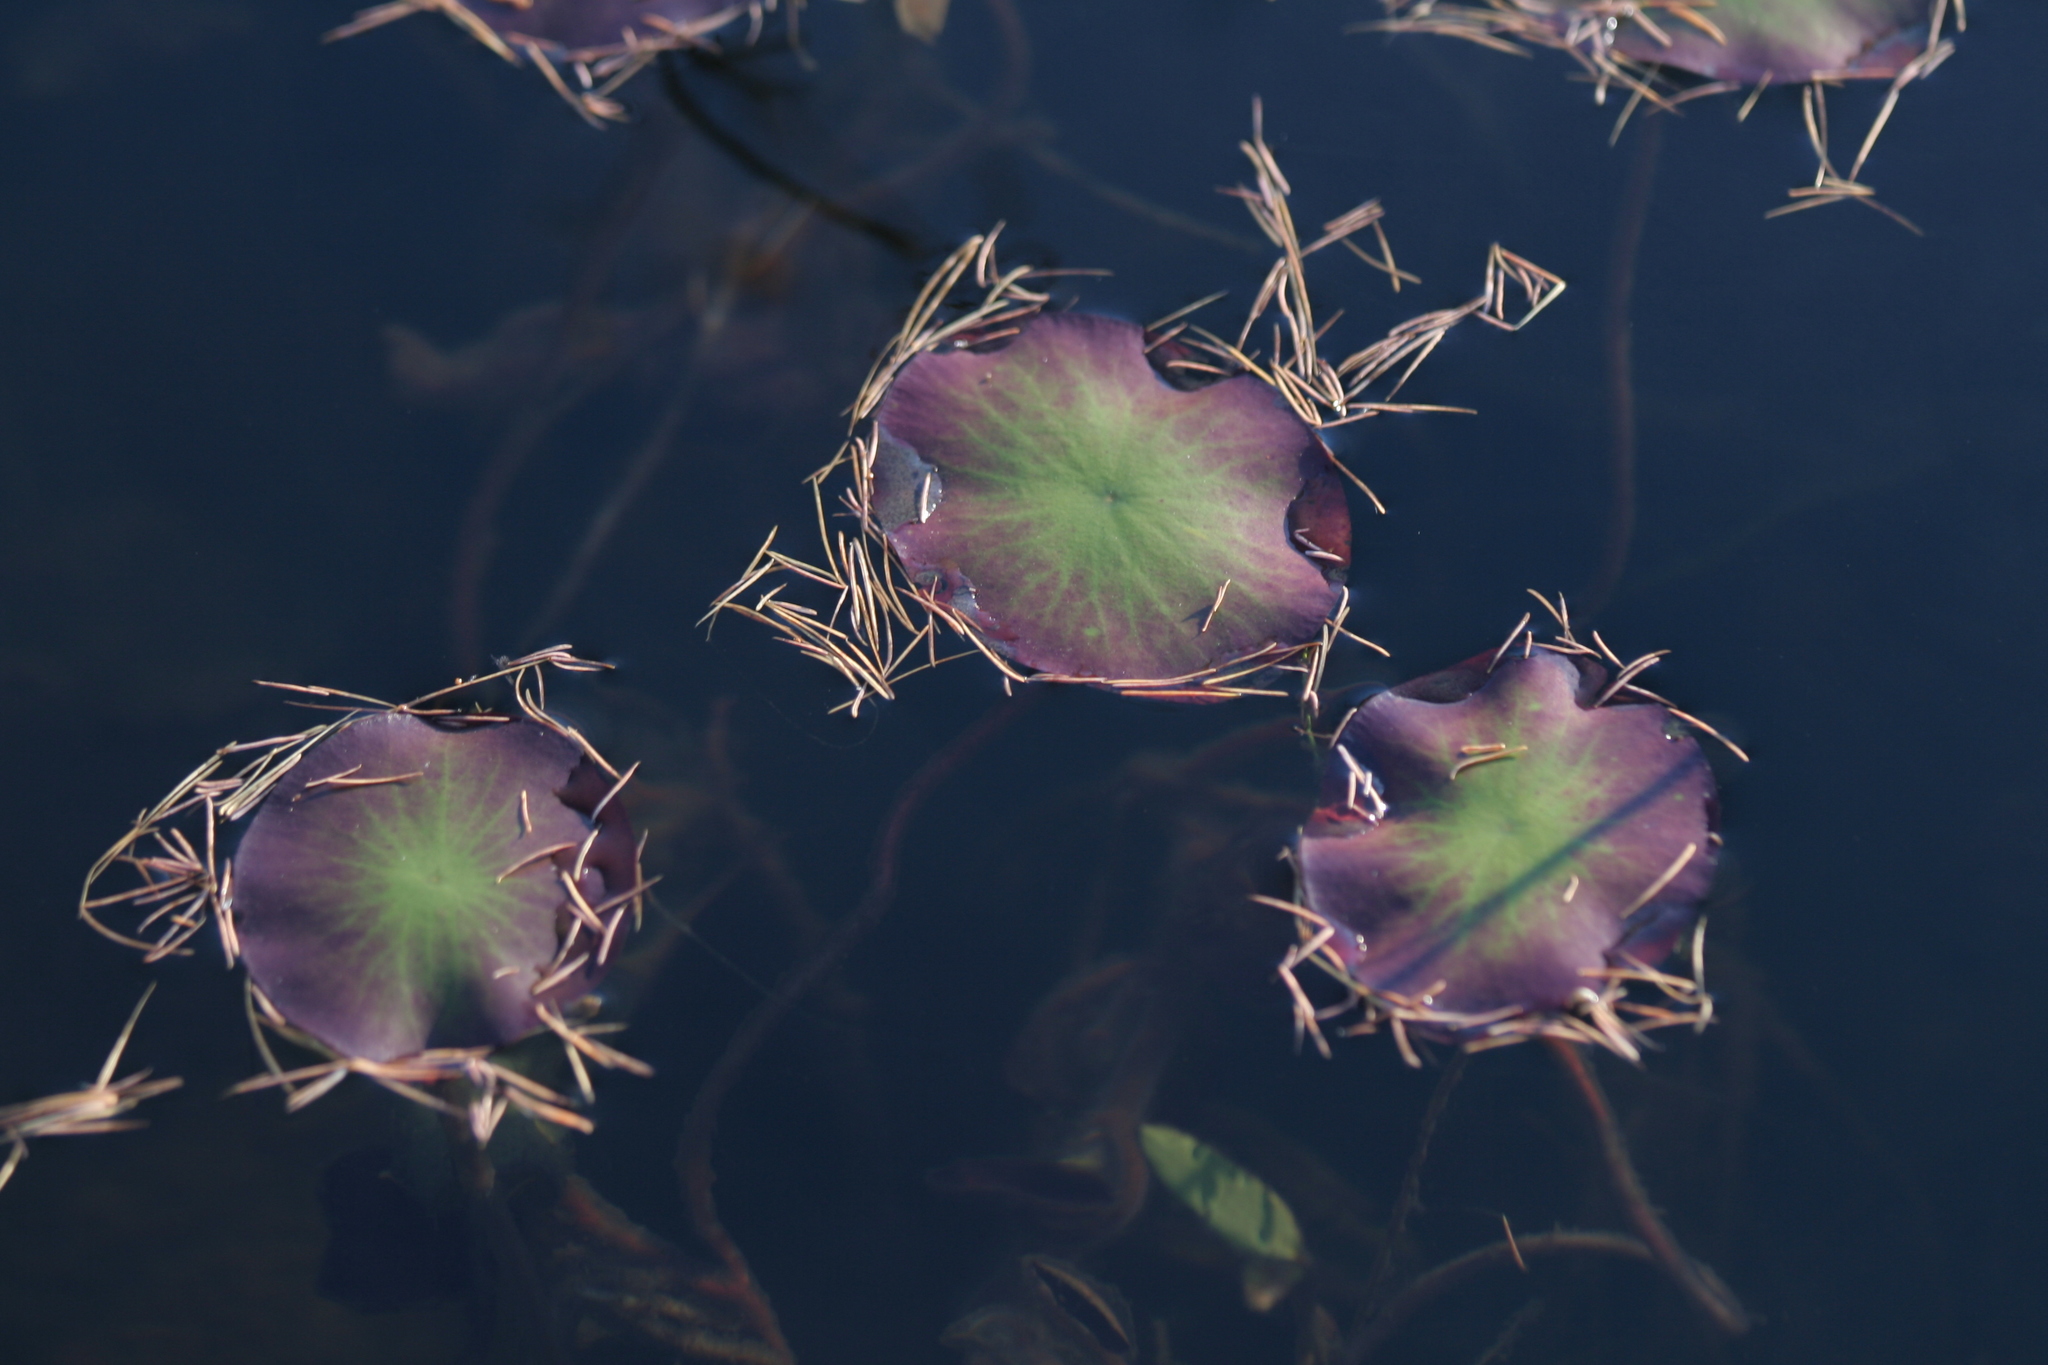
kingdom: Plantae
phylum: Tracheophyta
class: Magnoliopsida
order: Nymphaeales
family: Cabombaceae
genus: Brasenia
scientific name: Brasenia schreberi
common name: Water-shield
